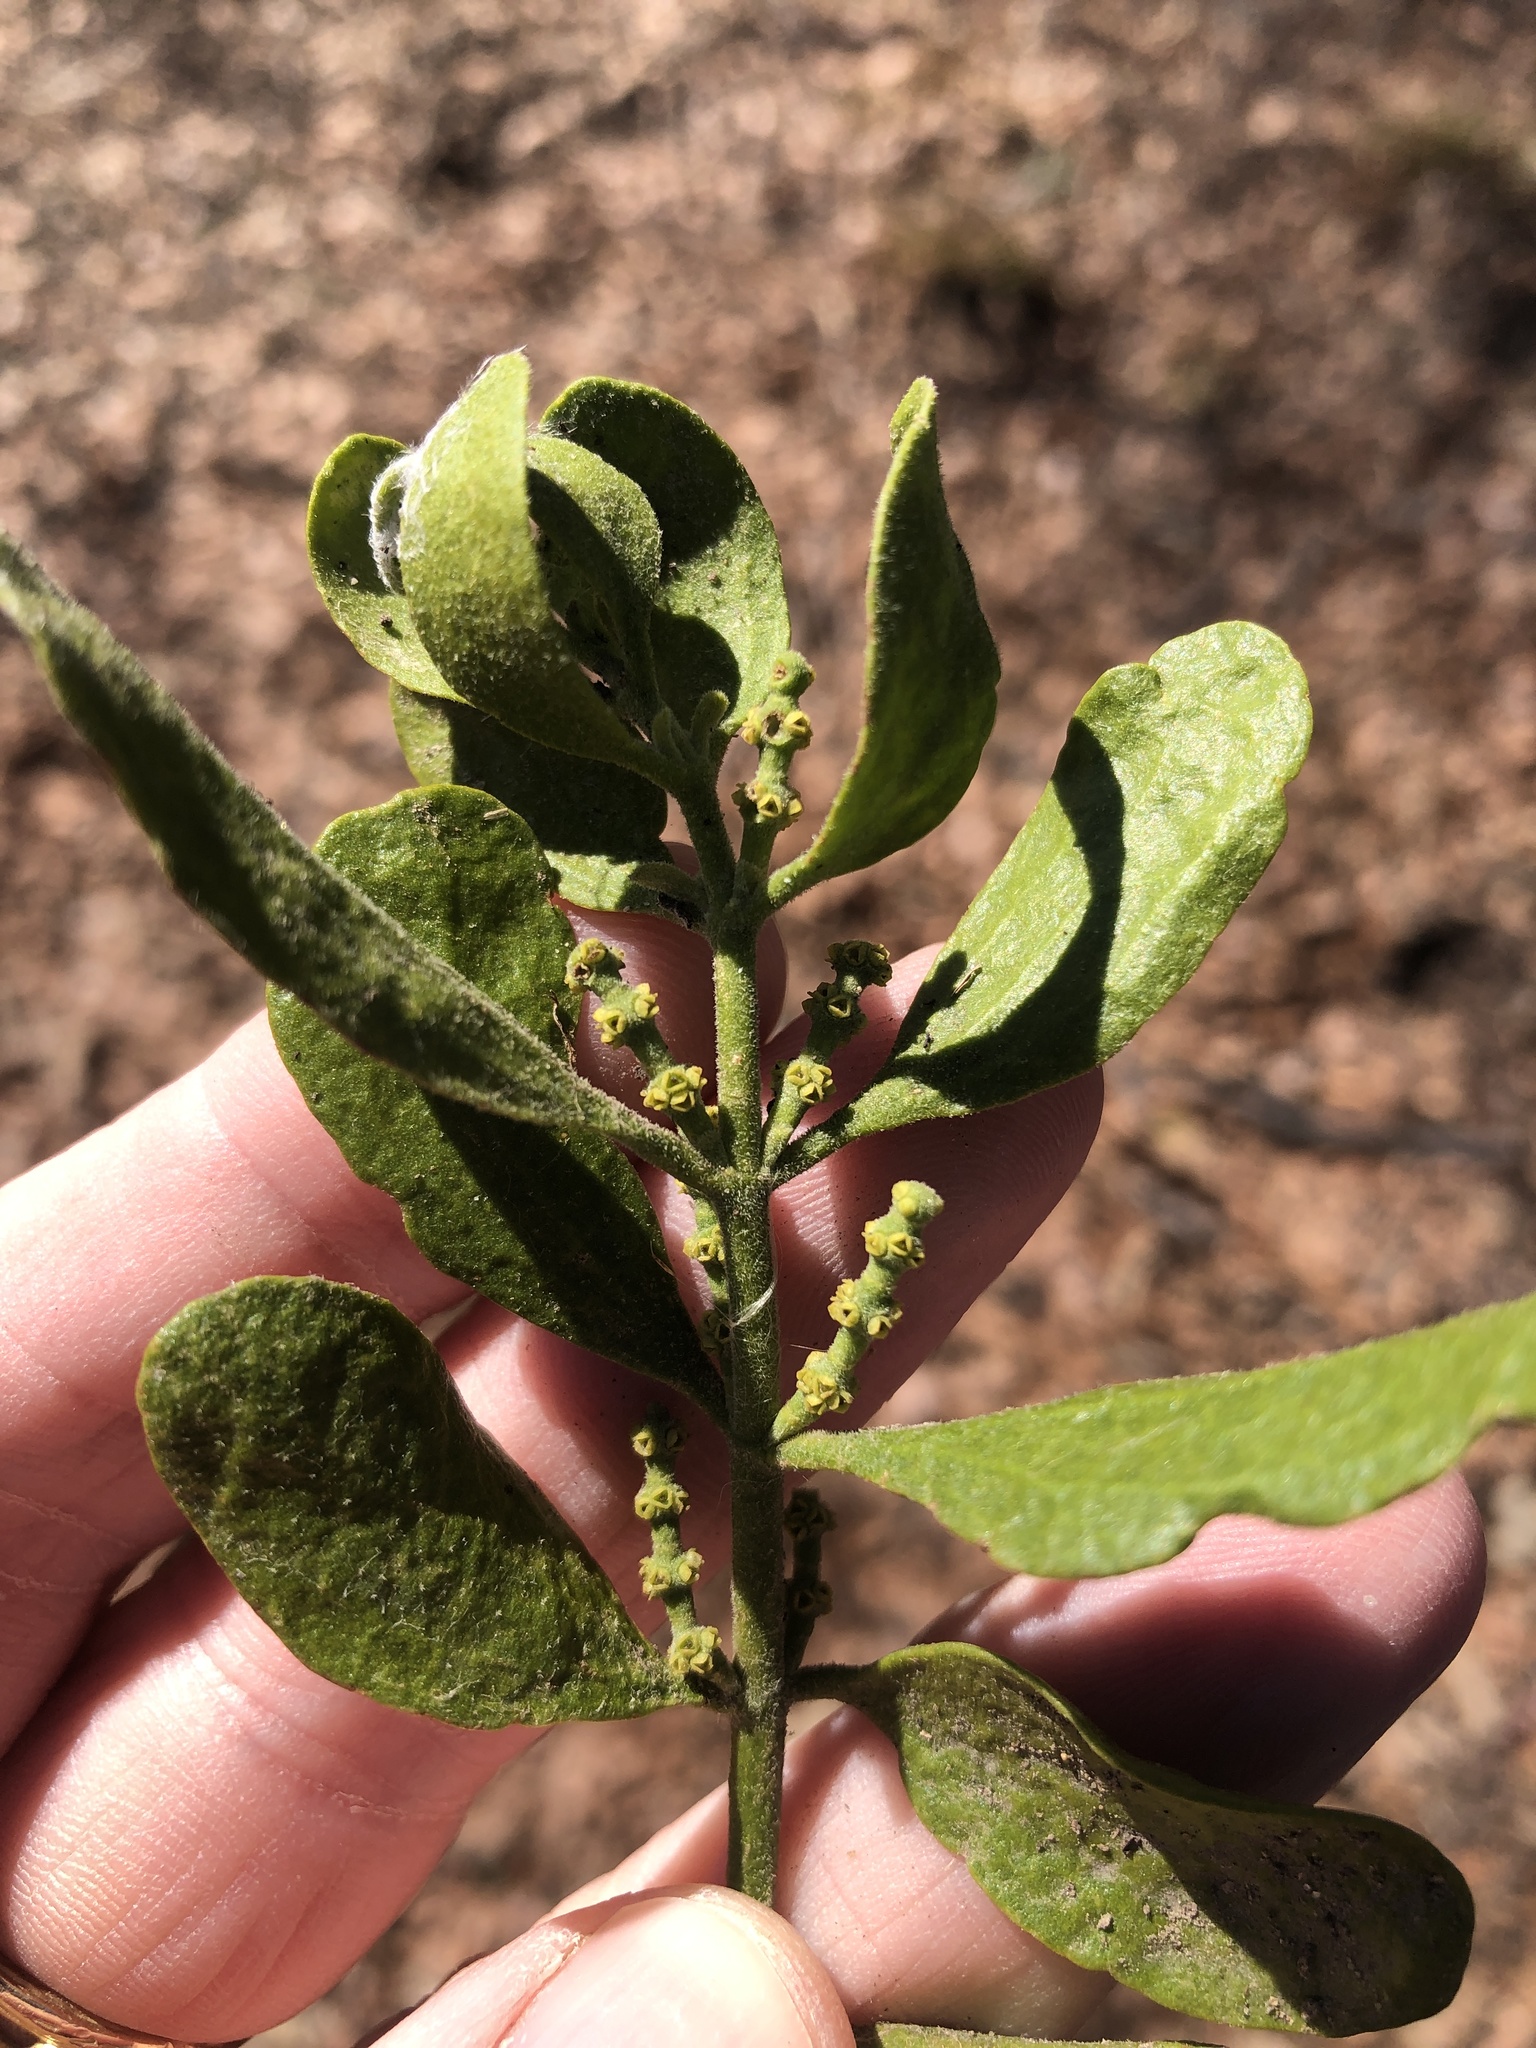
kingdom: Plantae
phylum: Tracheophyta
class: Magnoliopsida
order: Santalales
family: Viscaceae
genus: Phoradendron
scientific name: Phoradendron leucarpum
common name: Pacific mistletoe
